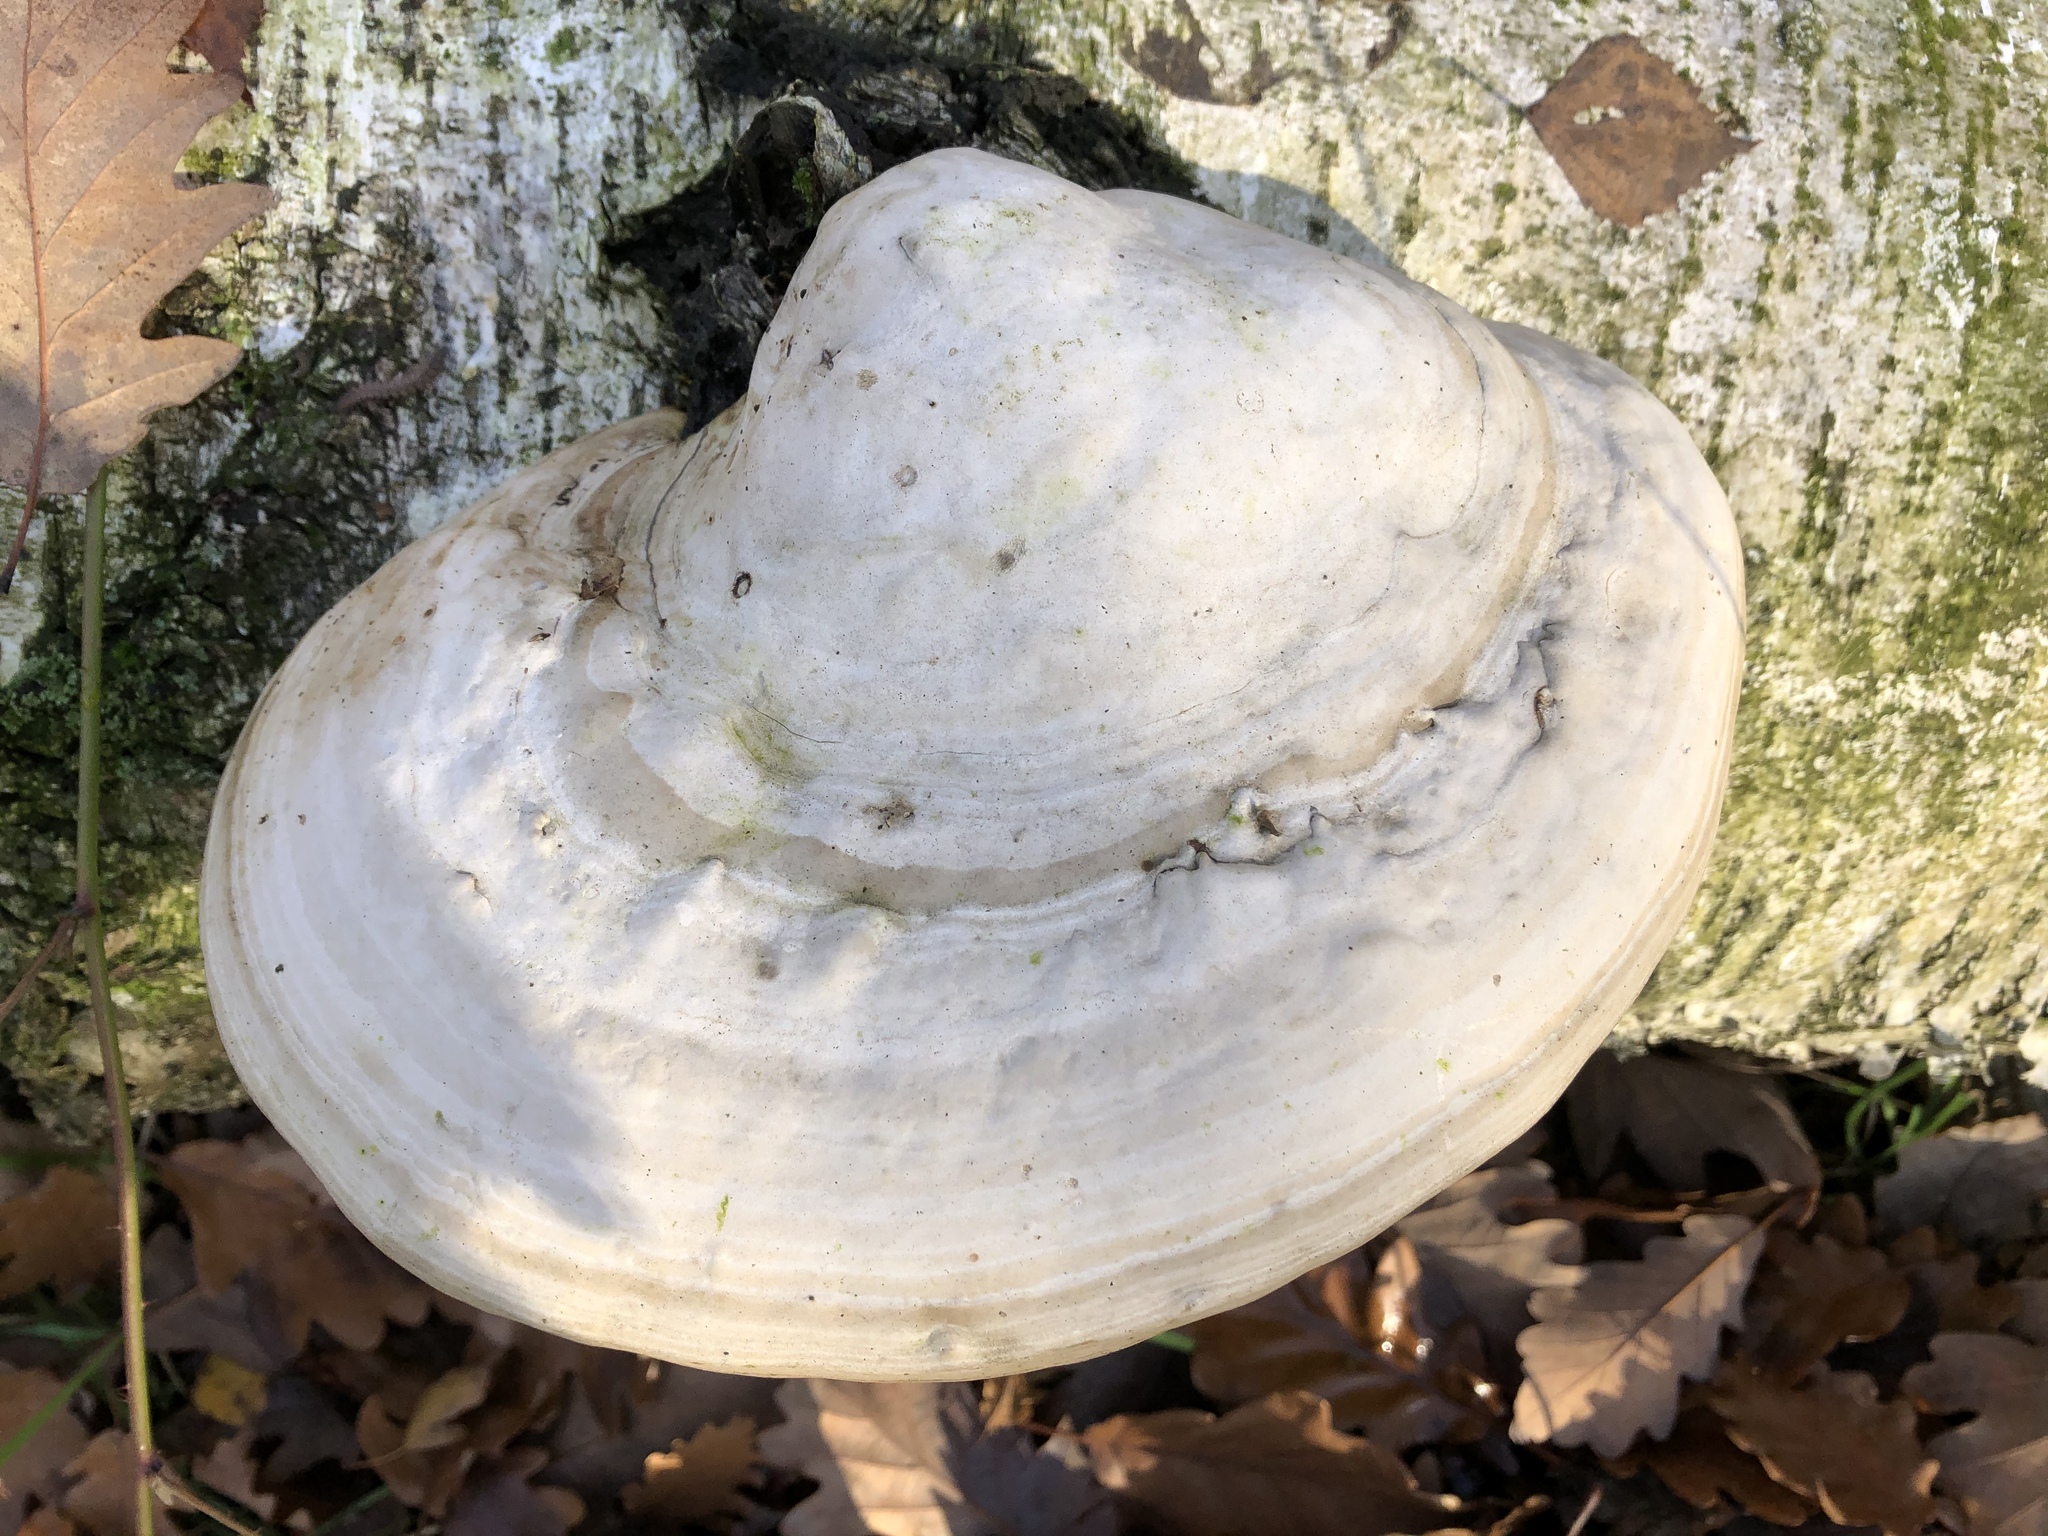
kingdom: Fungi
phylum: Basidiomycota
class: Agaricomycetes
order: Polyporales
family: Polyporaceae
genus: Fomes
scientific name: Fomes fomentarius
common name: Hoof fungus
